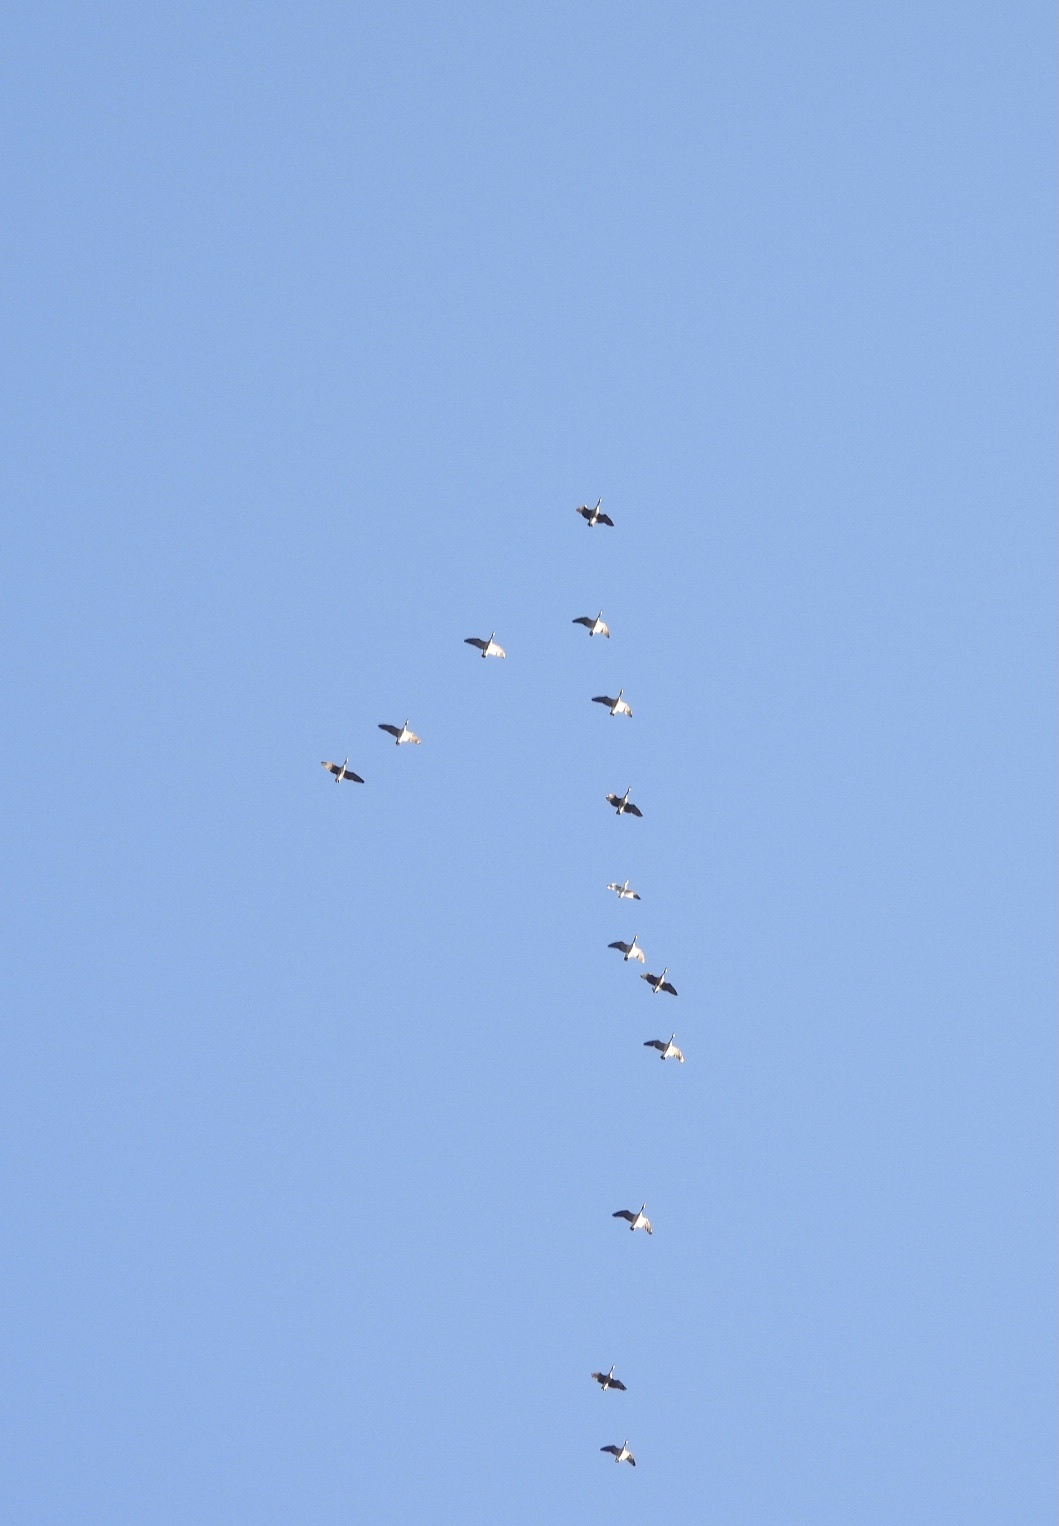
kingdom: Animalia
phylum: Chordata
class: Aves
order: Anseriformes
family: Anatidae
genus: Anser
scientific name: Anser caerulescens
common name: Snow goose
